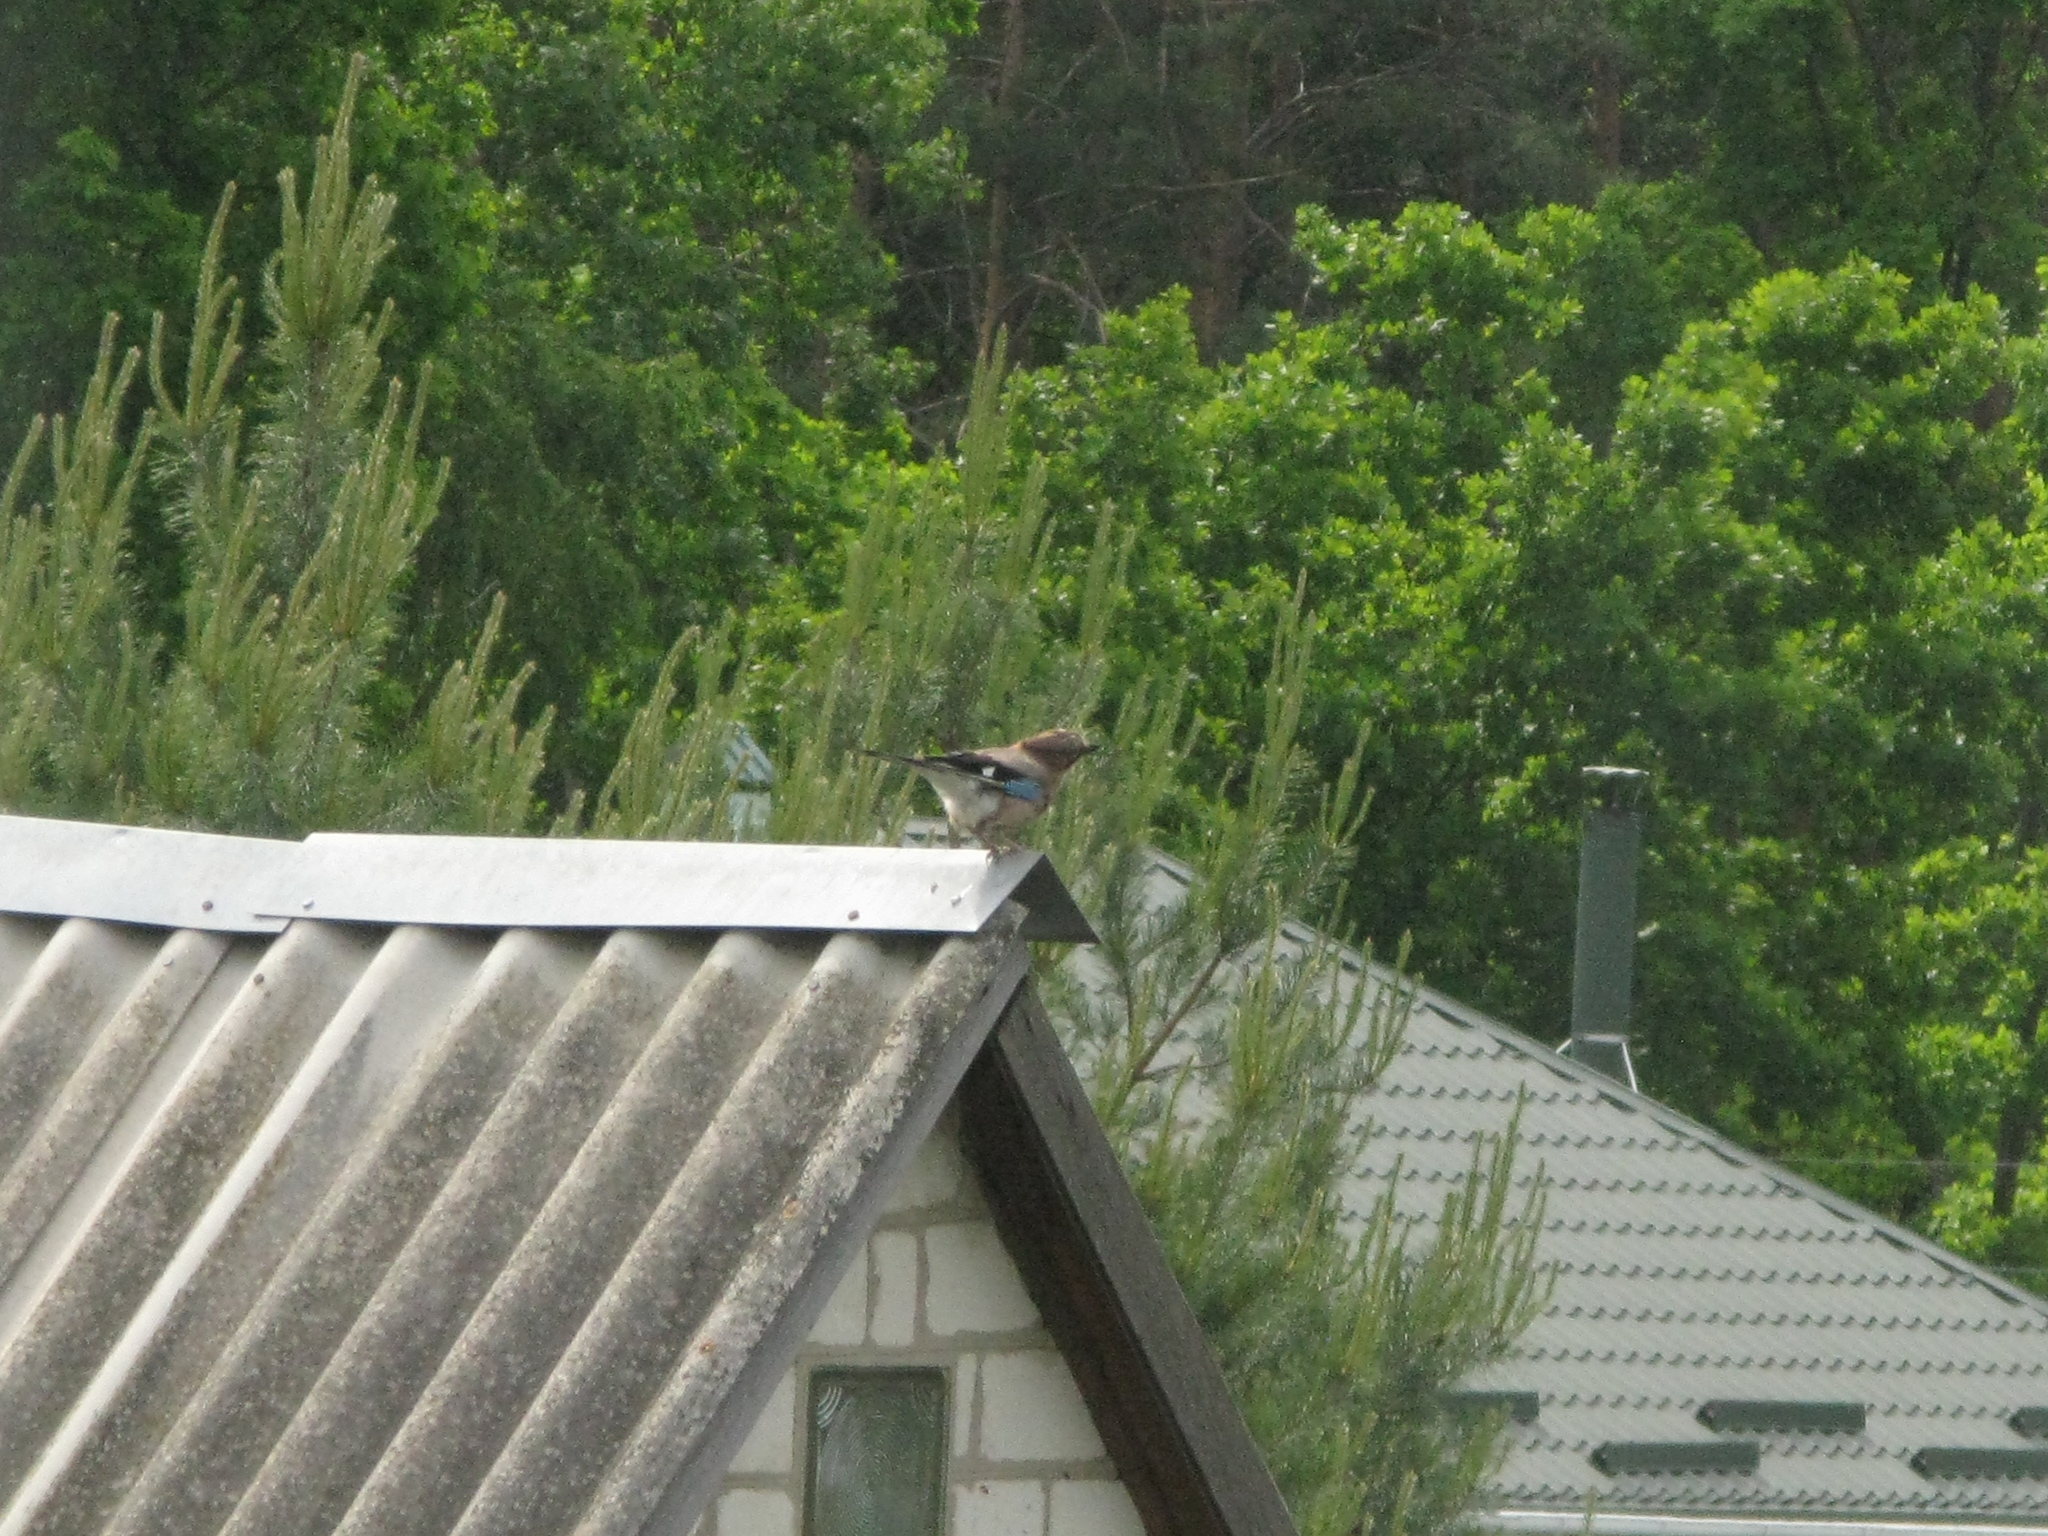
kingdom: Animalia
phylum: Chordata
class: Aves
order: Passeriformes
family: Corvidae
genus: Garrulus
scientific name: Garrulus glandarius
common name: Eurasian jay
